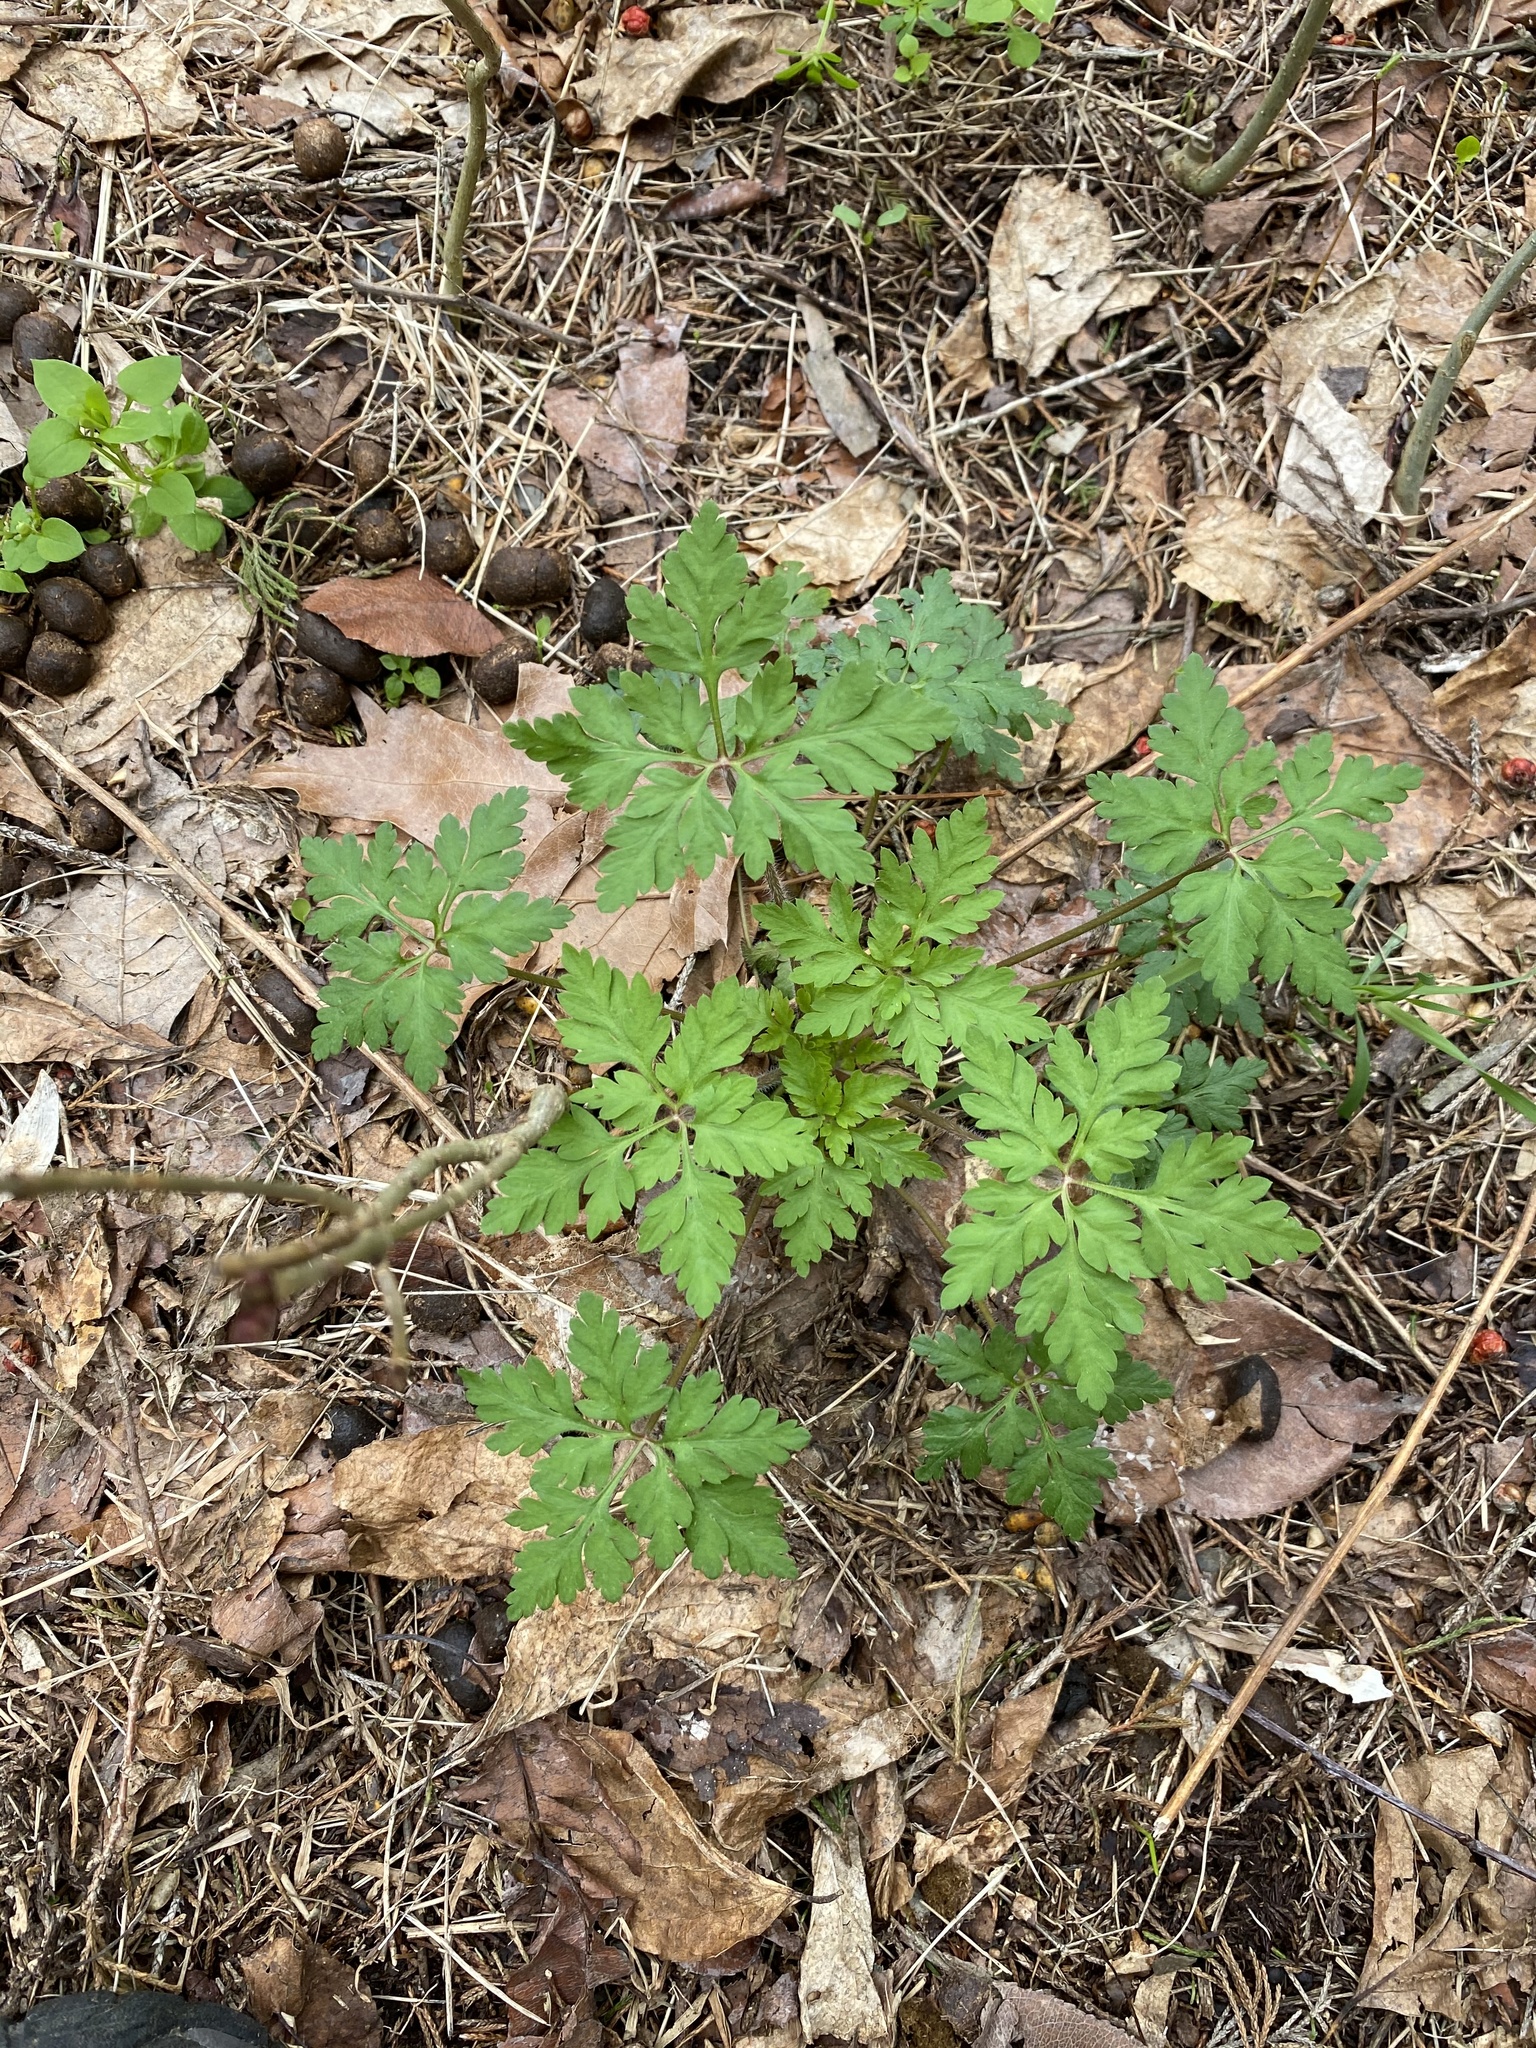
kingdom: Plantae
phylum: Tracheophyta
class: Magnoliopsida
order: Geraniales
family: Geraniaceae
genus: Geranium
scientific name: Geranium robertianum
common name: Herb-robert
